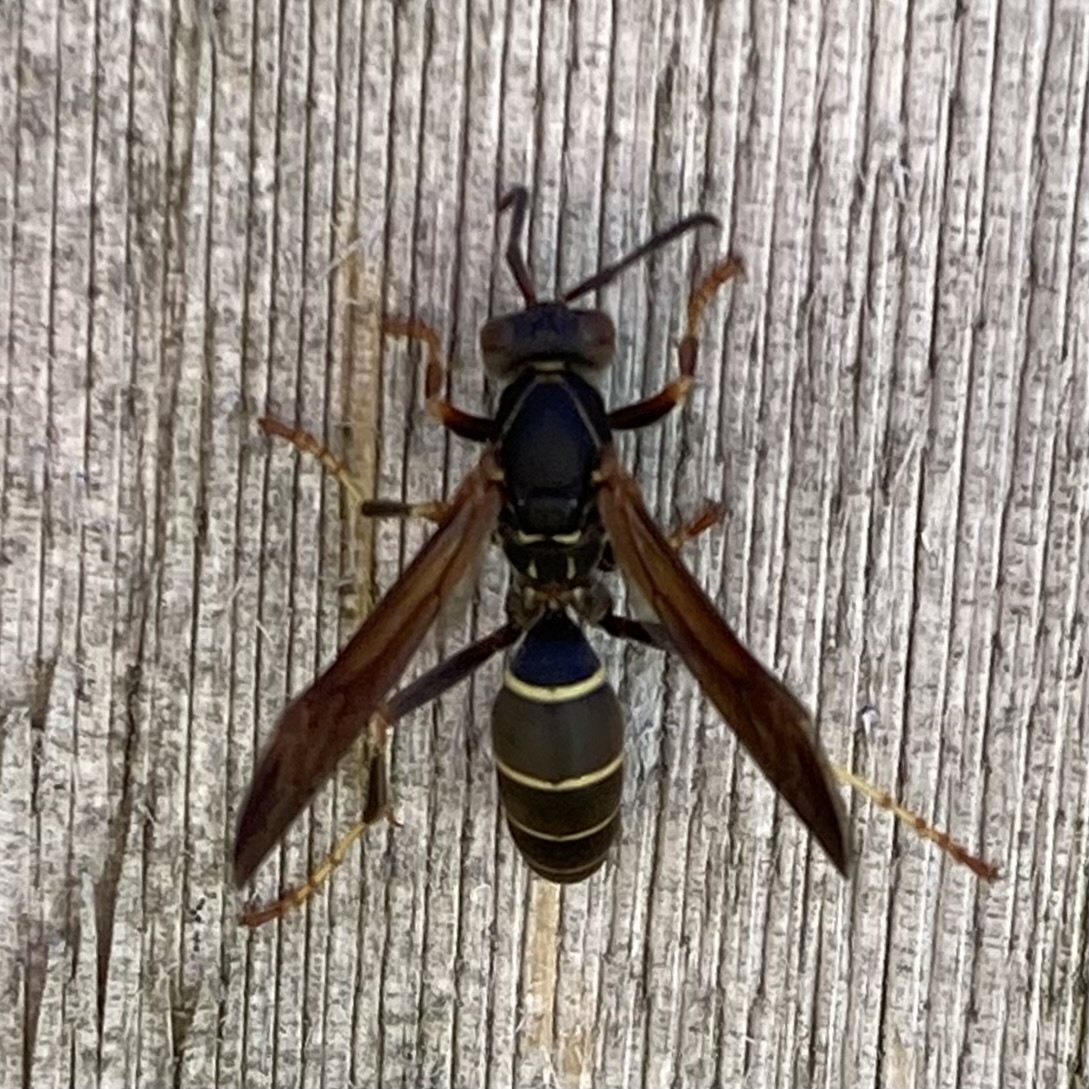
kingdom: Animalia
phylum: Arthropoda
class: Insecta
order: Hymenoptera
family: Eumenidae
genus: Polistes
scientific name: Polistes fuscatus
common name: Dark paper wasp
